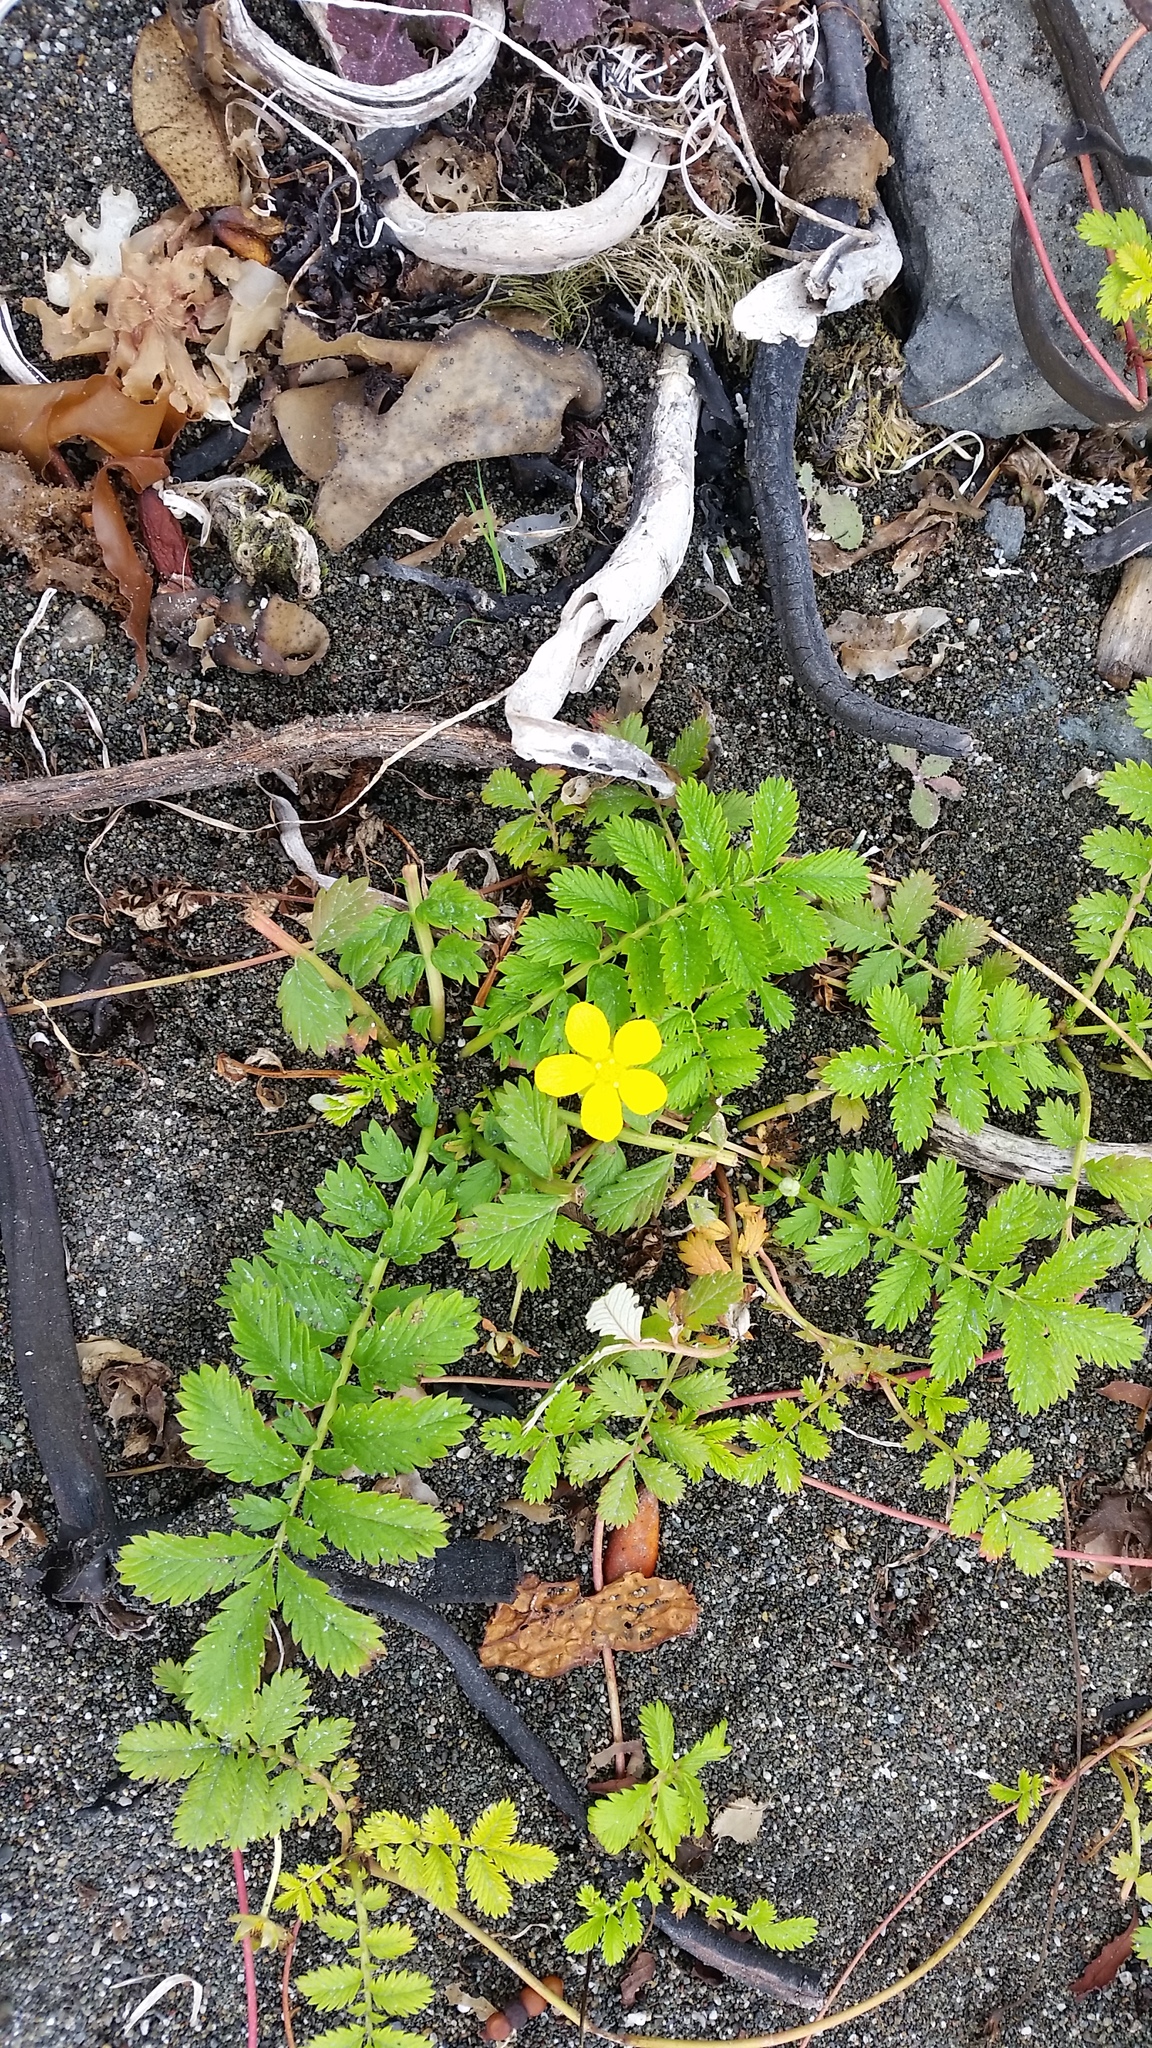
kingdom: Plantae
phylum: Tracheophyta
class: Magnoliopsida
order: Rosales
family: Rosaceae
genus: Argentina
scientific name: Argentina anserina
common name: Common silverweed
